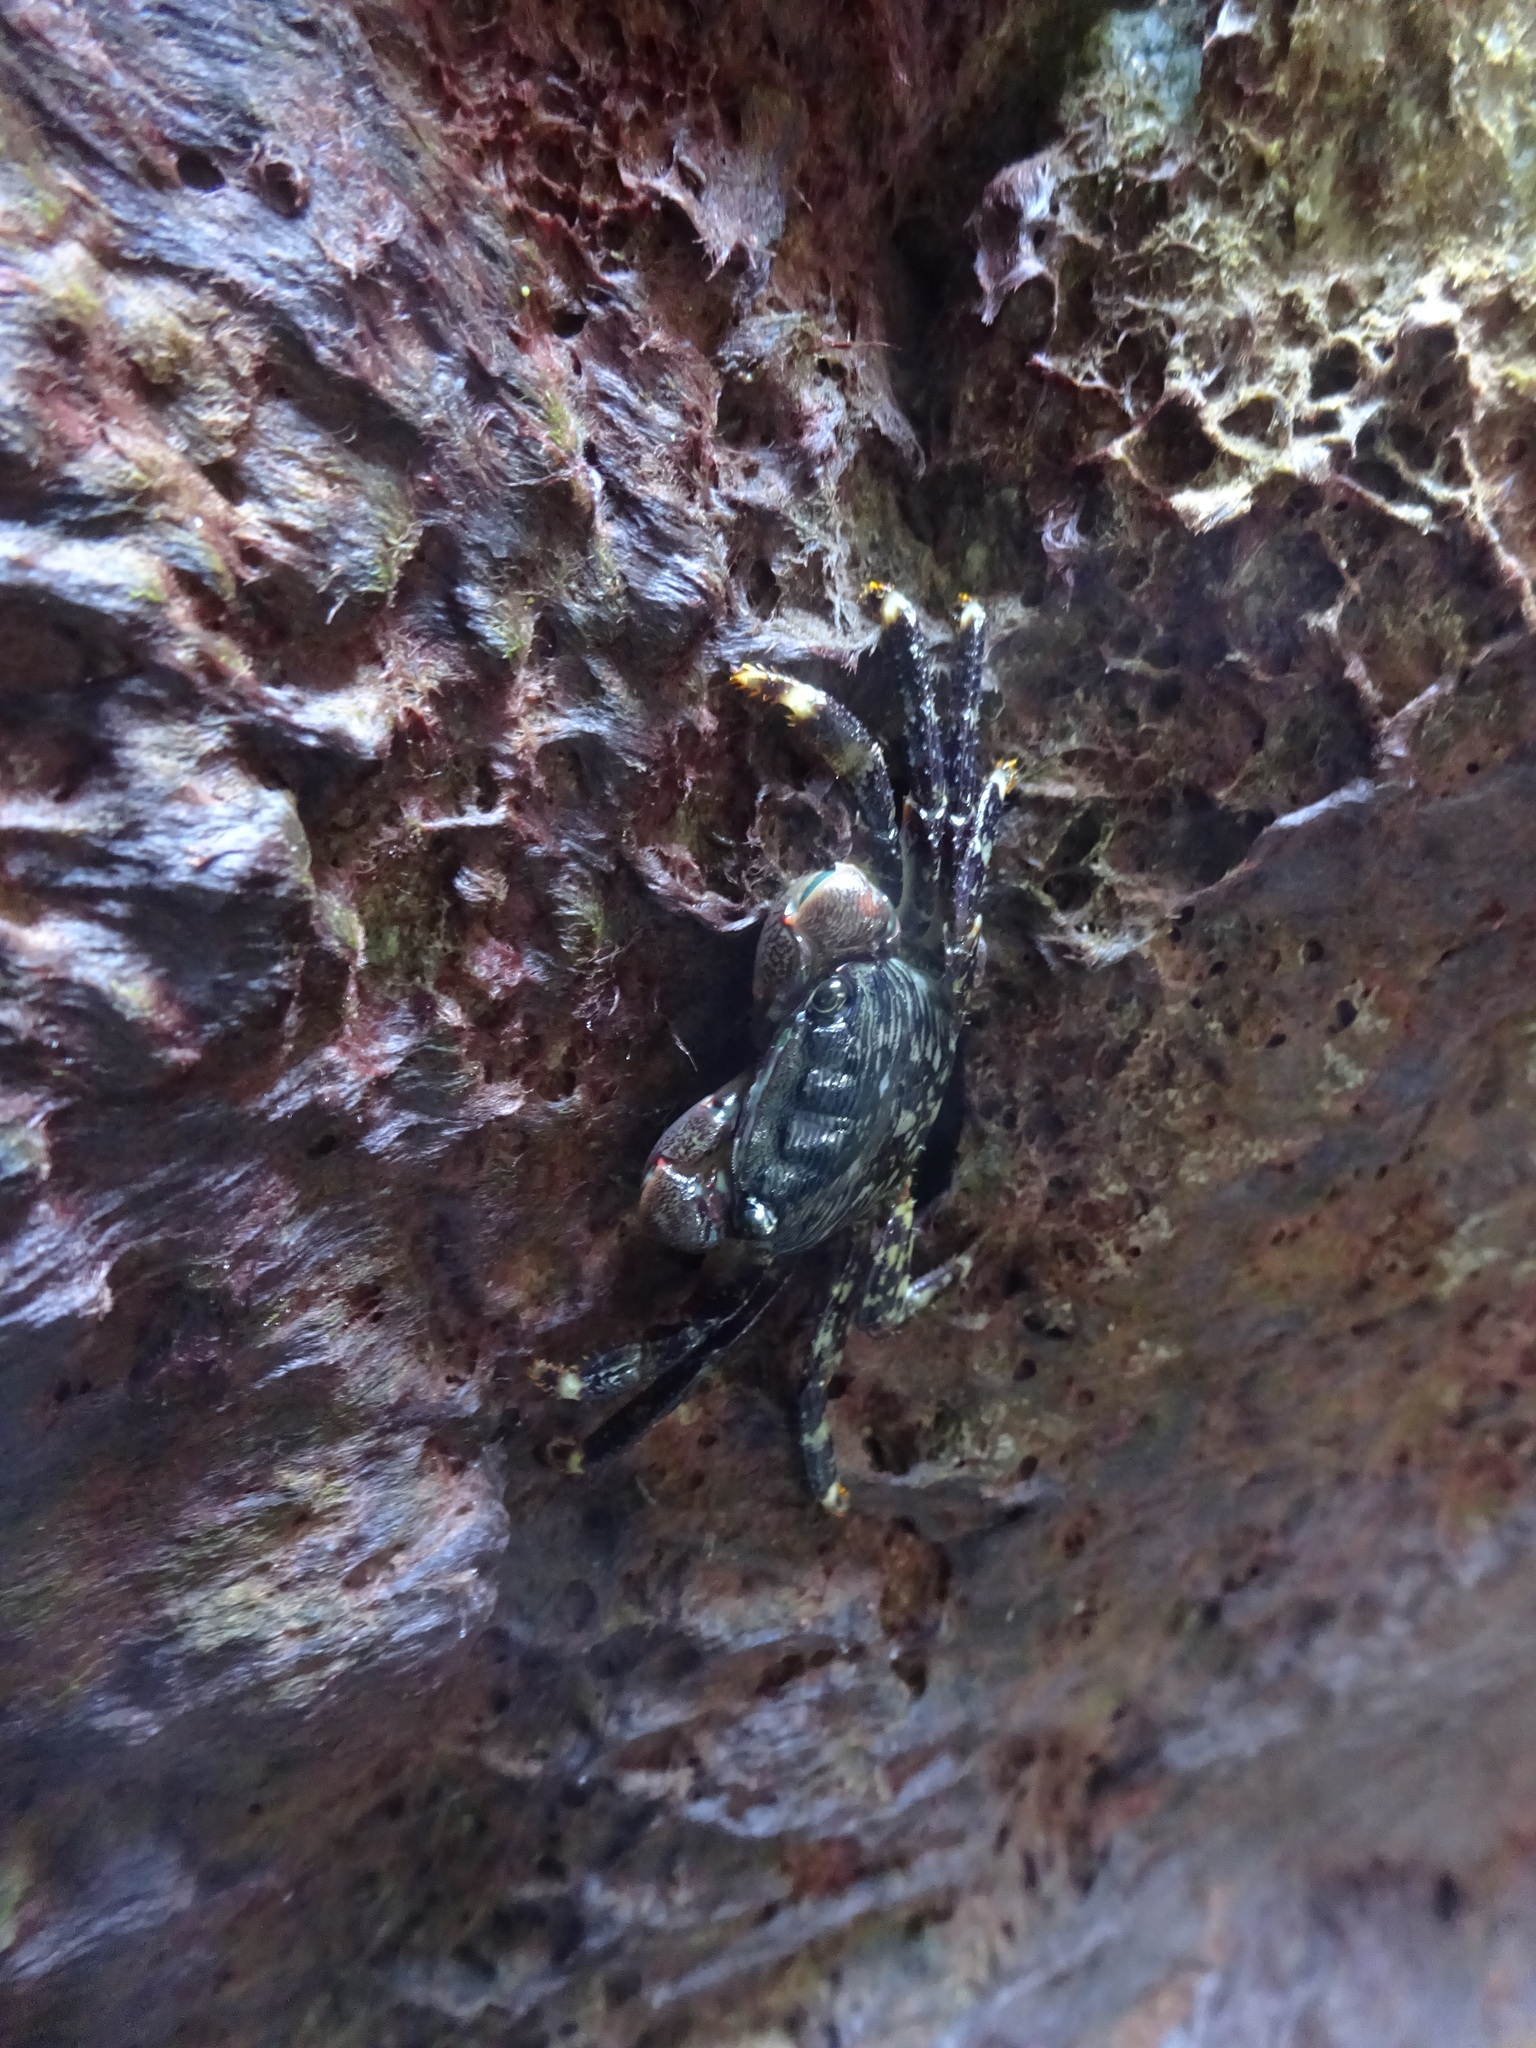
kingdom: Animalia
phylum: Arthropoda
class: Malacostraca
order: Decapoda
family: Grapsidae
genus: Pachygrapsus
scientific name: Pachygrapsus crassipes
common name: Striped shore crab
